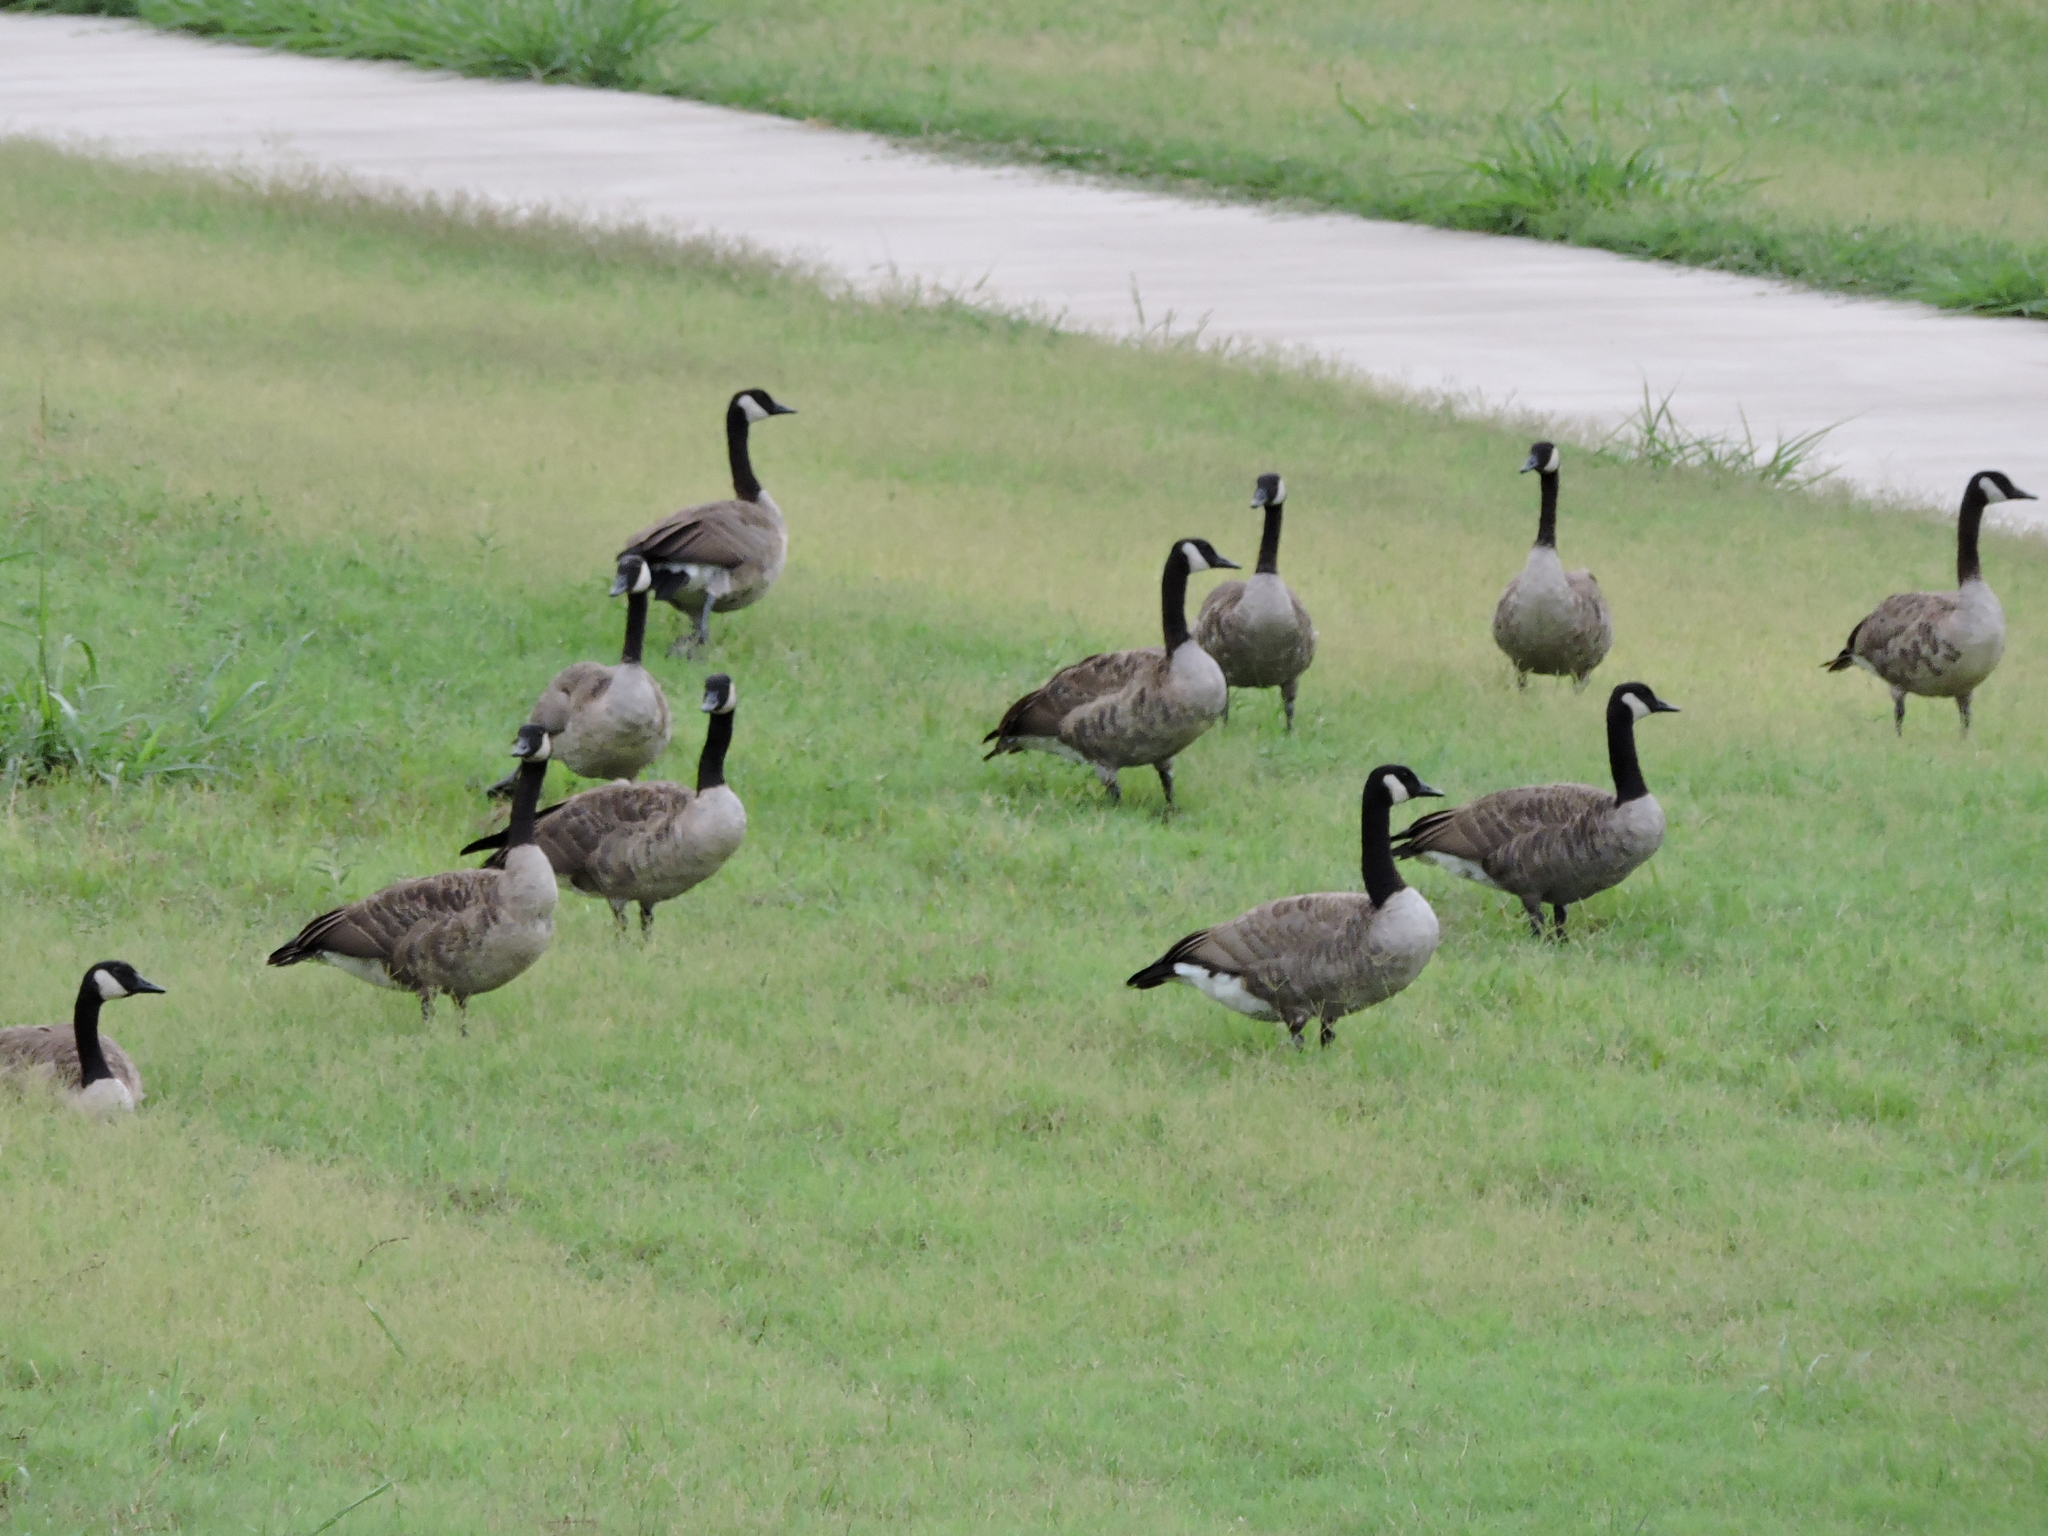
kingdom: Animalia
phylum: Chordata
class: Aves
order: Anseriformes
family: Anatidae
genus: Branta
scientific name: Branta canadensis
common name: Canada goose
